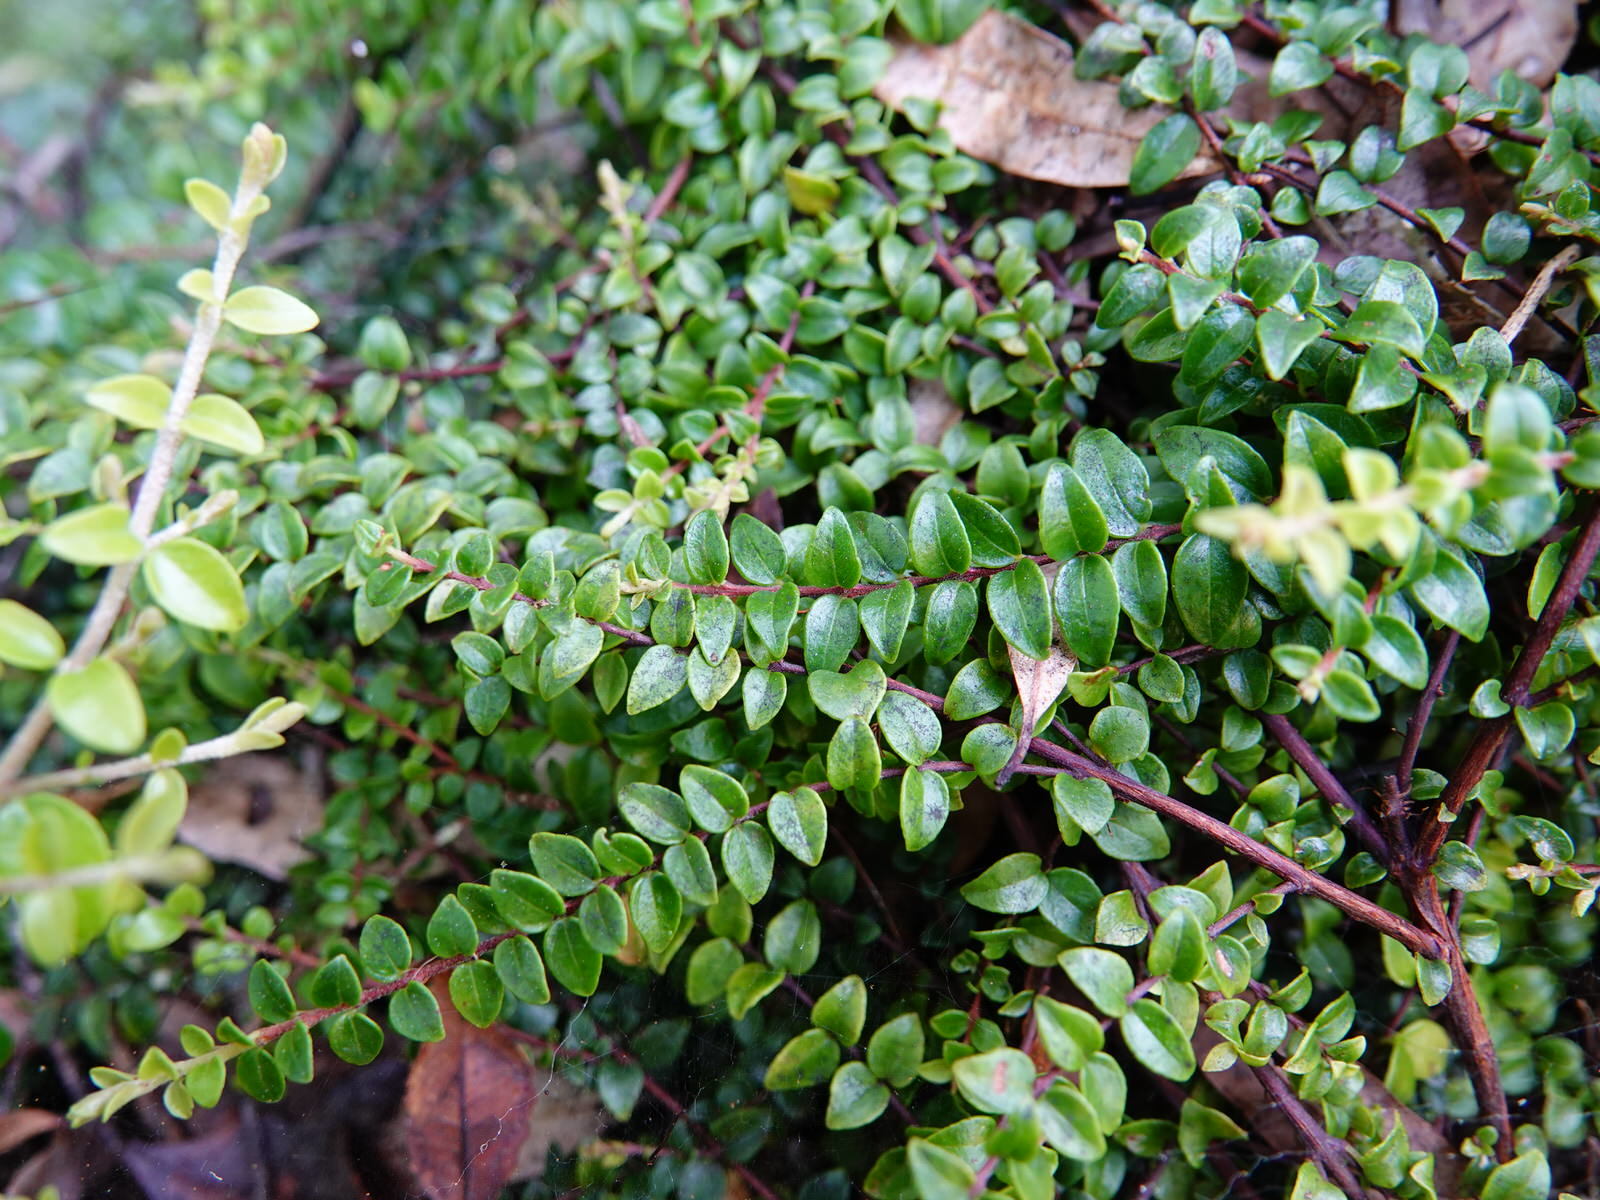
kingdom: Plantae
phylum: Tracheophyta
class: Magnoliopsida
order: Myrtales
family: Myrtaceae
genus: Metrosideros
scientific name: Metrosideros perforata
